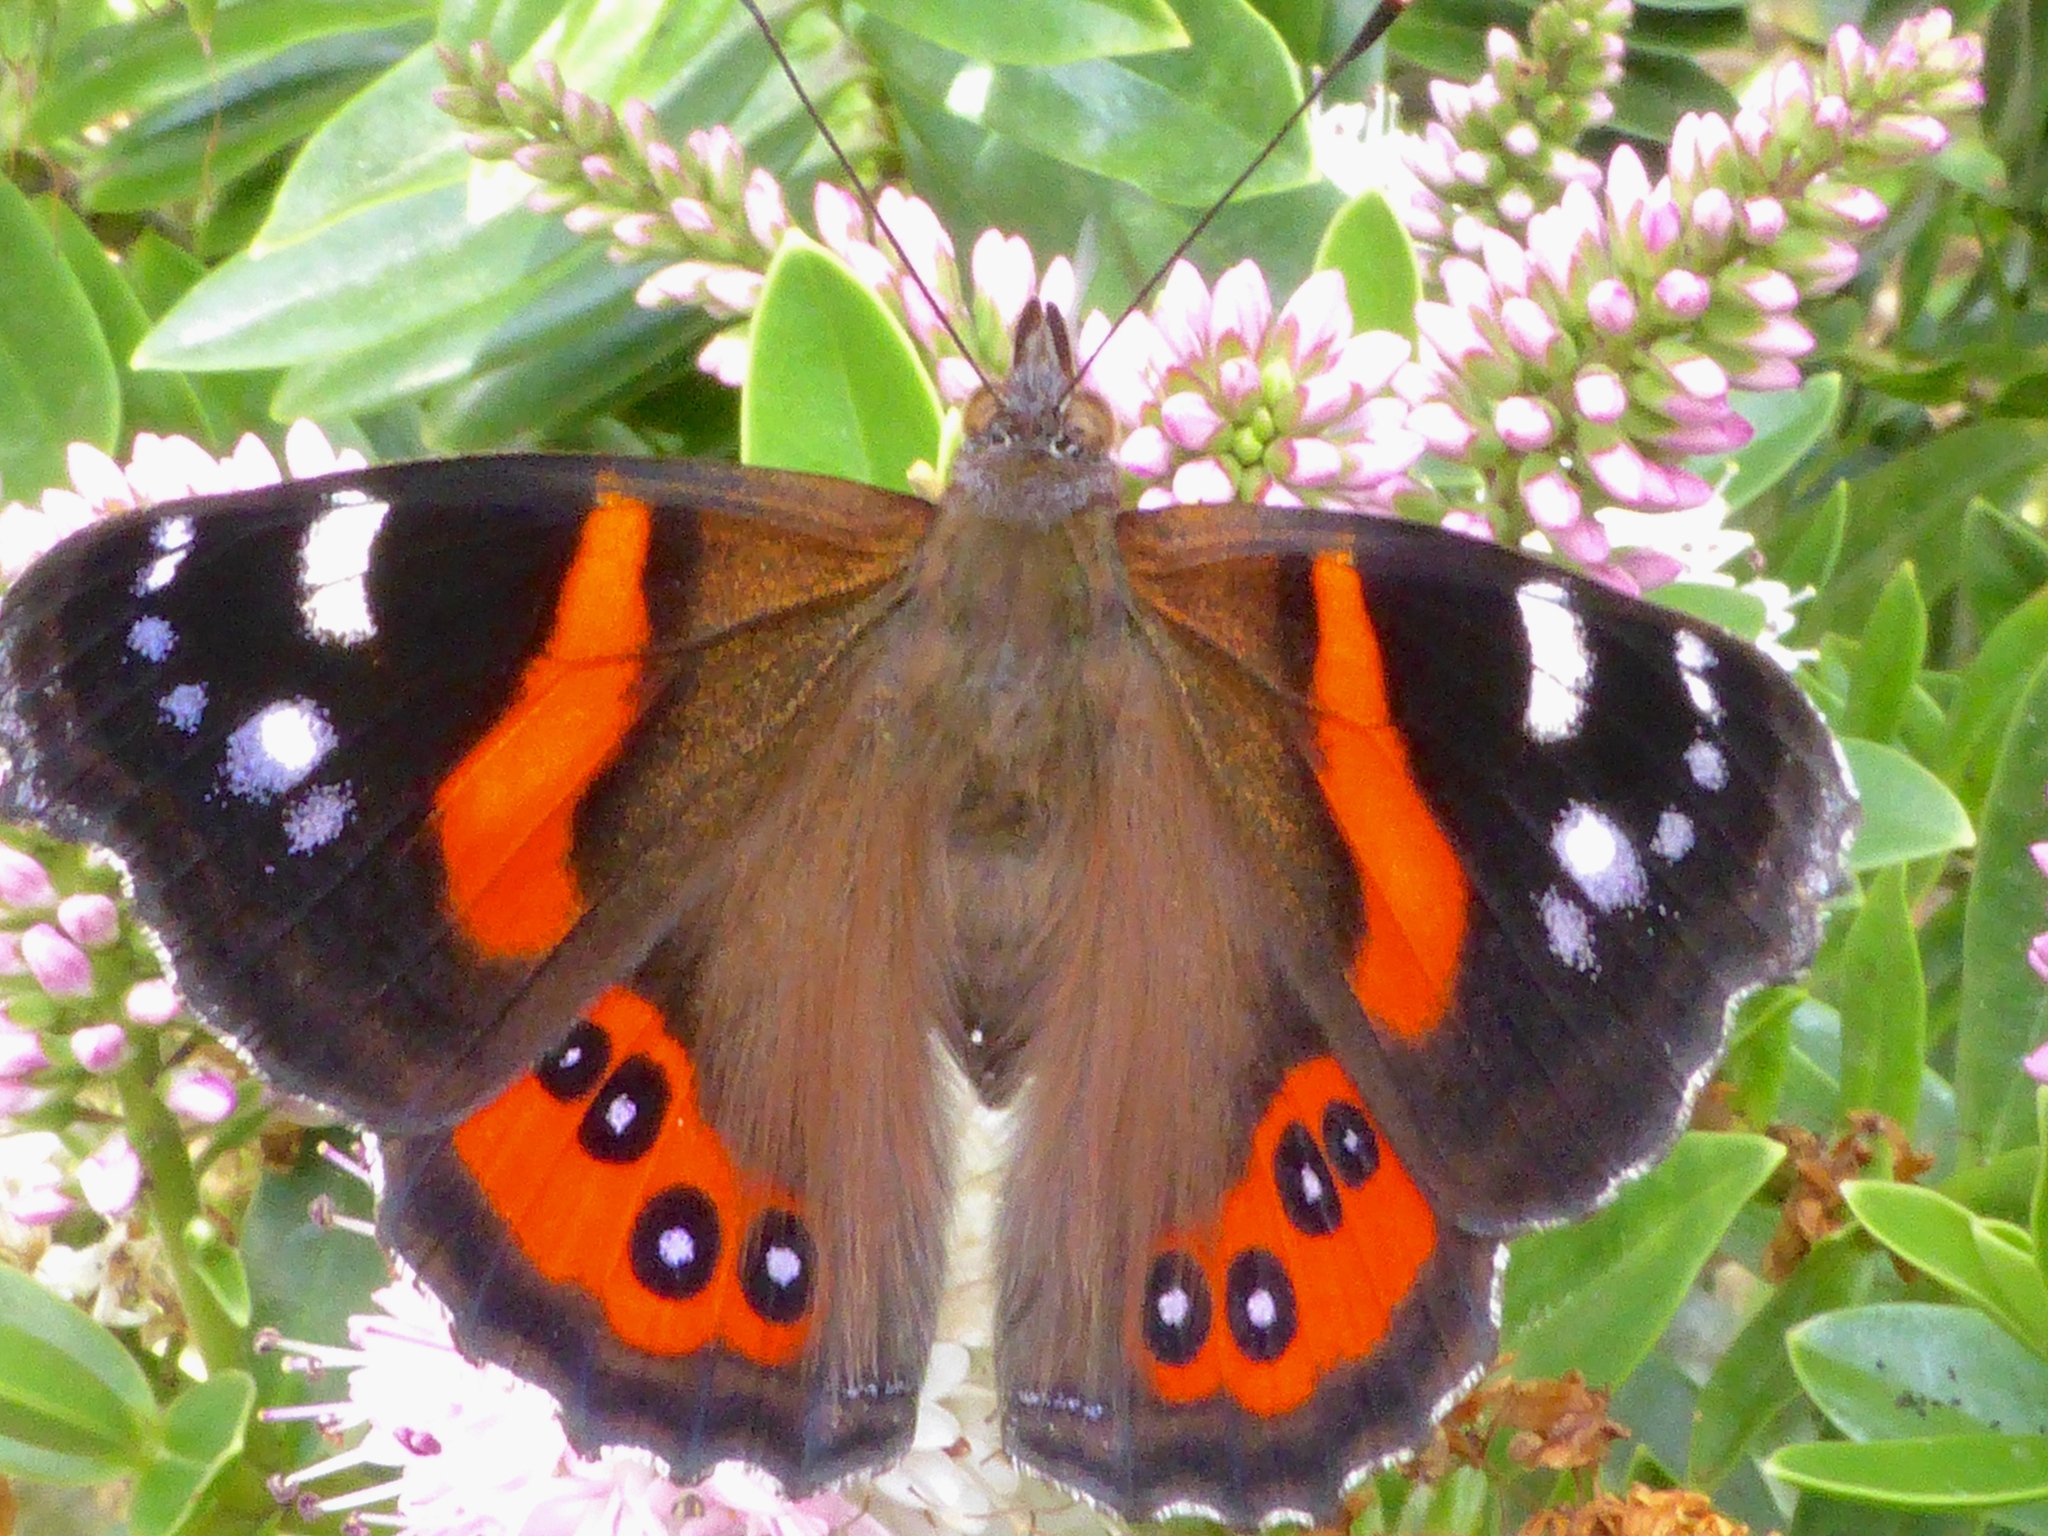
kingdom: Animalia
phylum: Arthropoda
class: Insecta
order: Lepidoptera
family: Nymphalidae
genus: Vanessa
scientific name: Vanessa gonerilla
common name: New zealand red admiral
